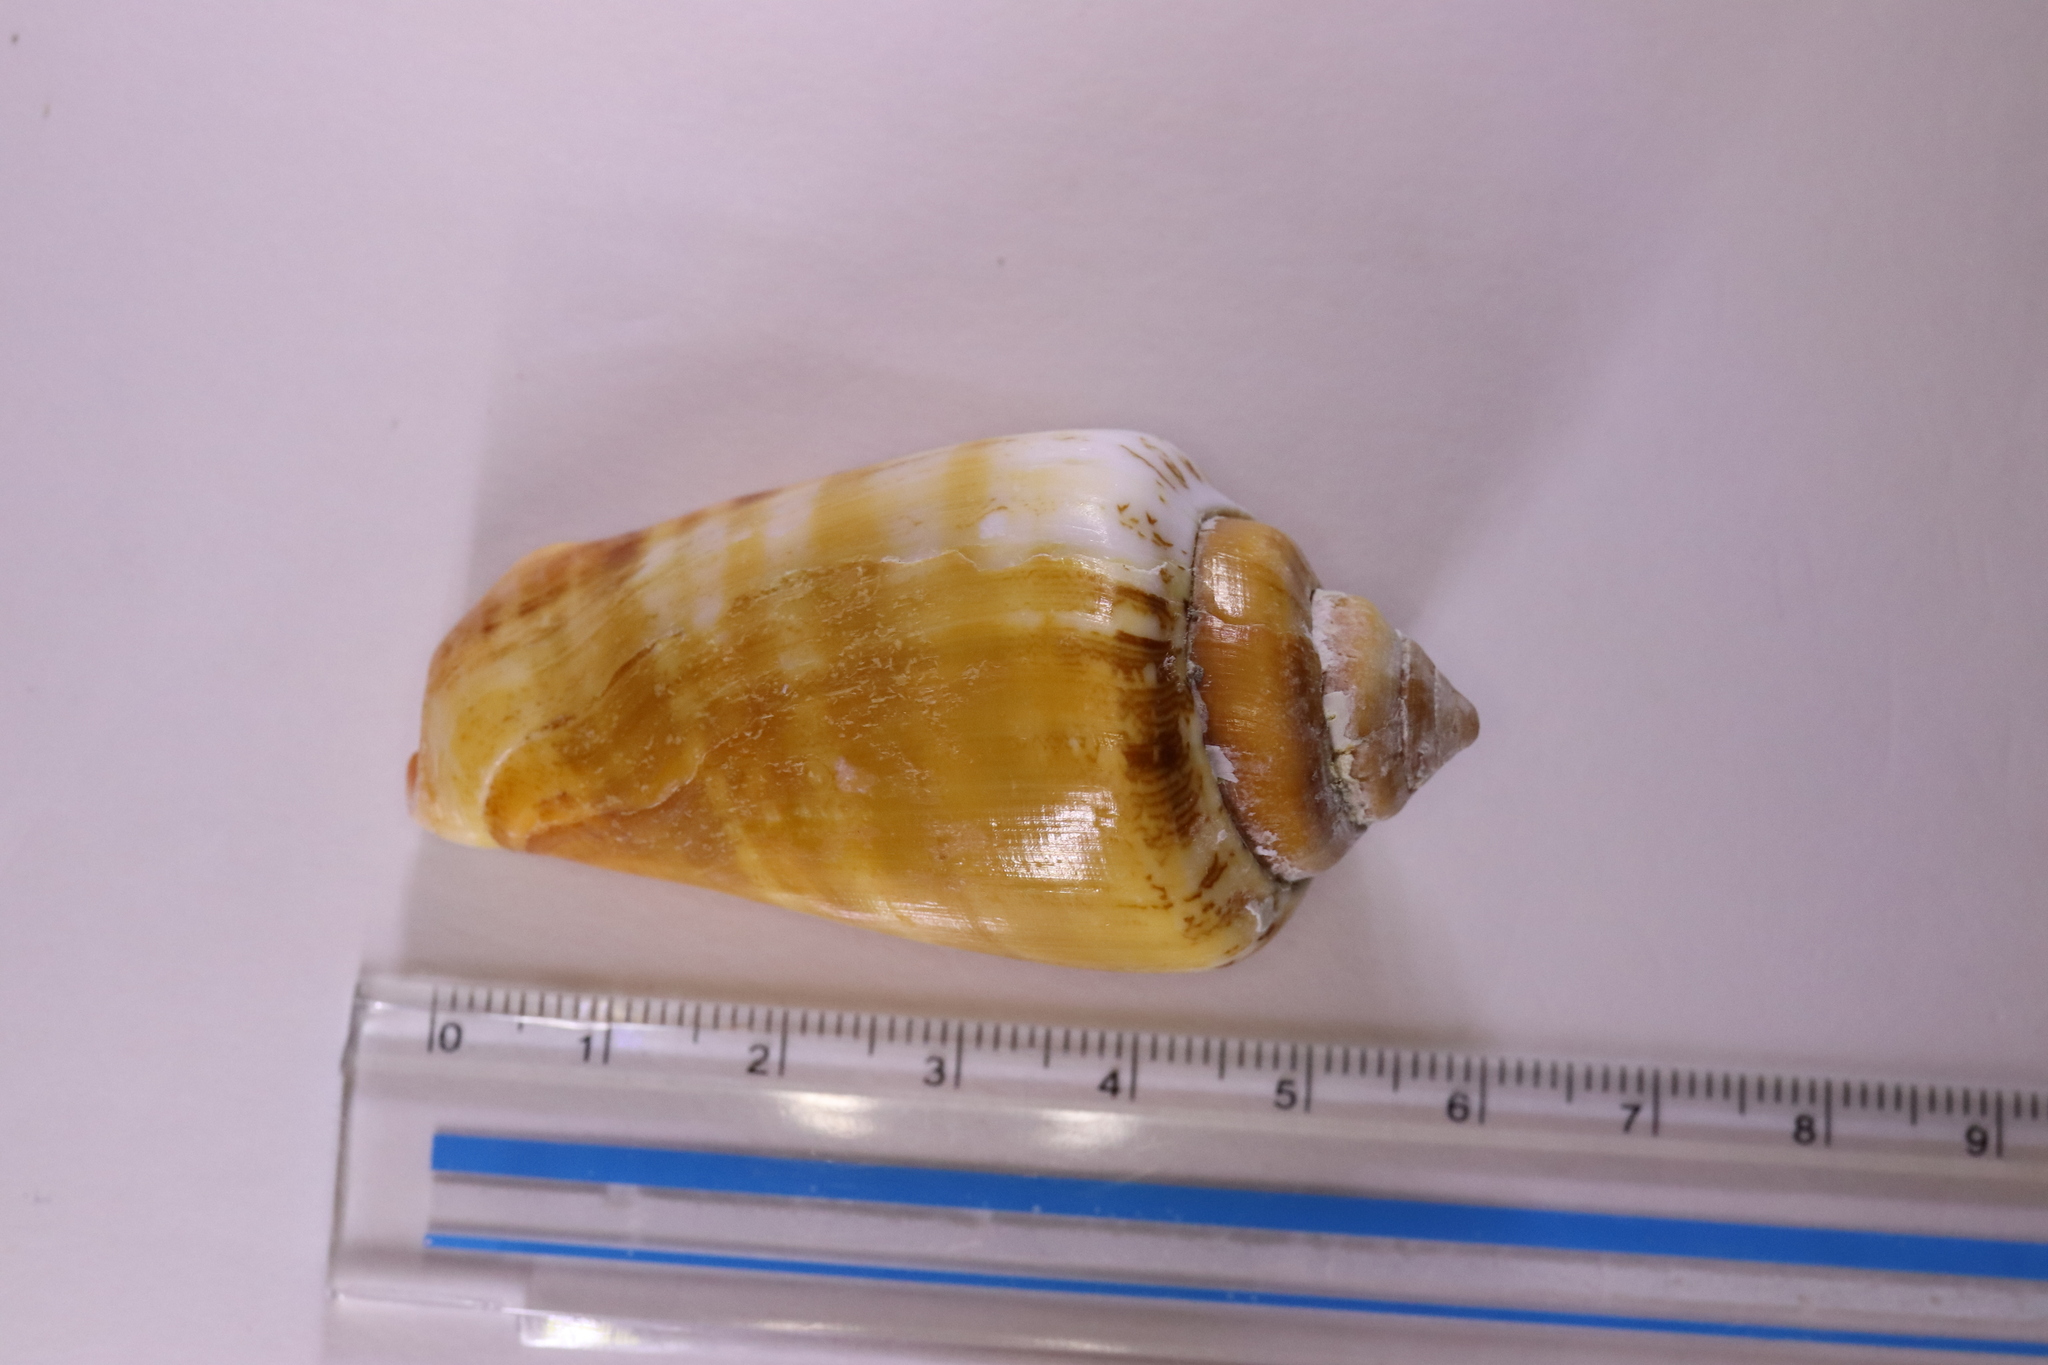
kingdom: Animalia
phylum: Mollusca
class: Gastropoda
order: Littorinimorpha
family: Strombidae
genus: Conomurex
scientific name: Conomurex luhuanus
